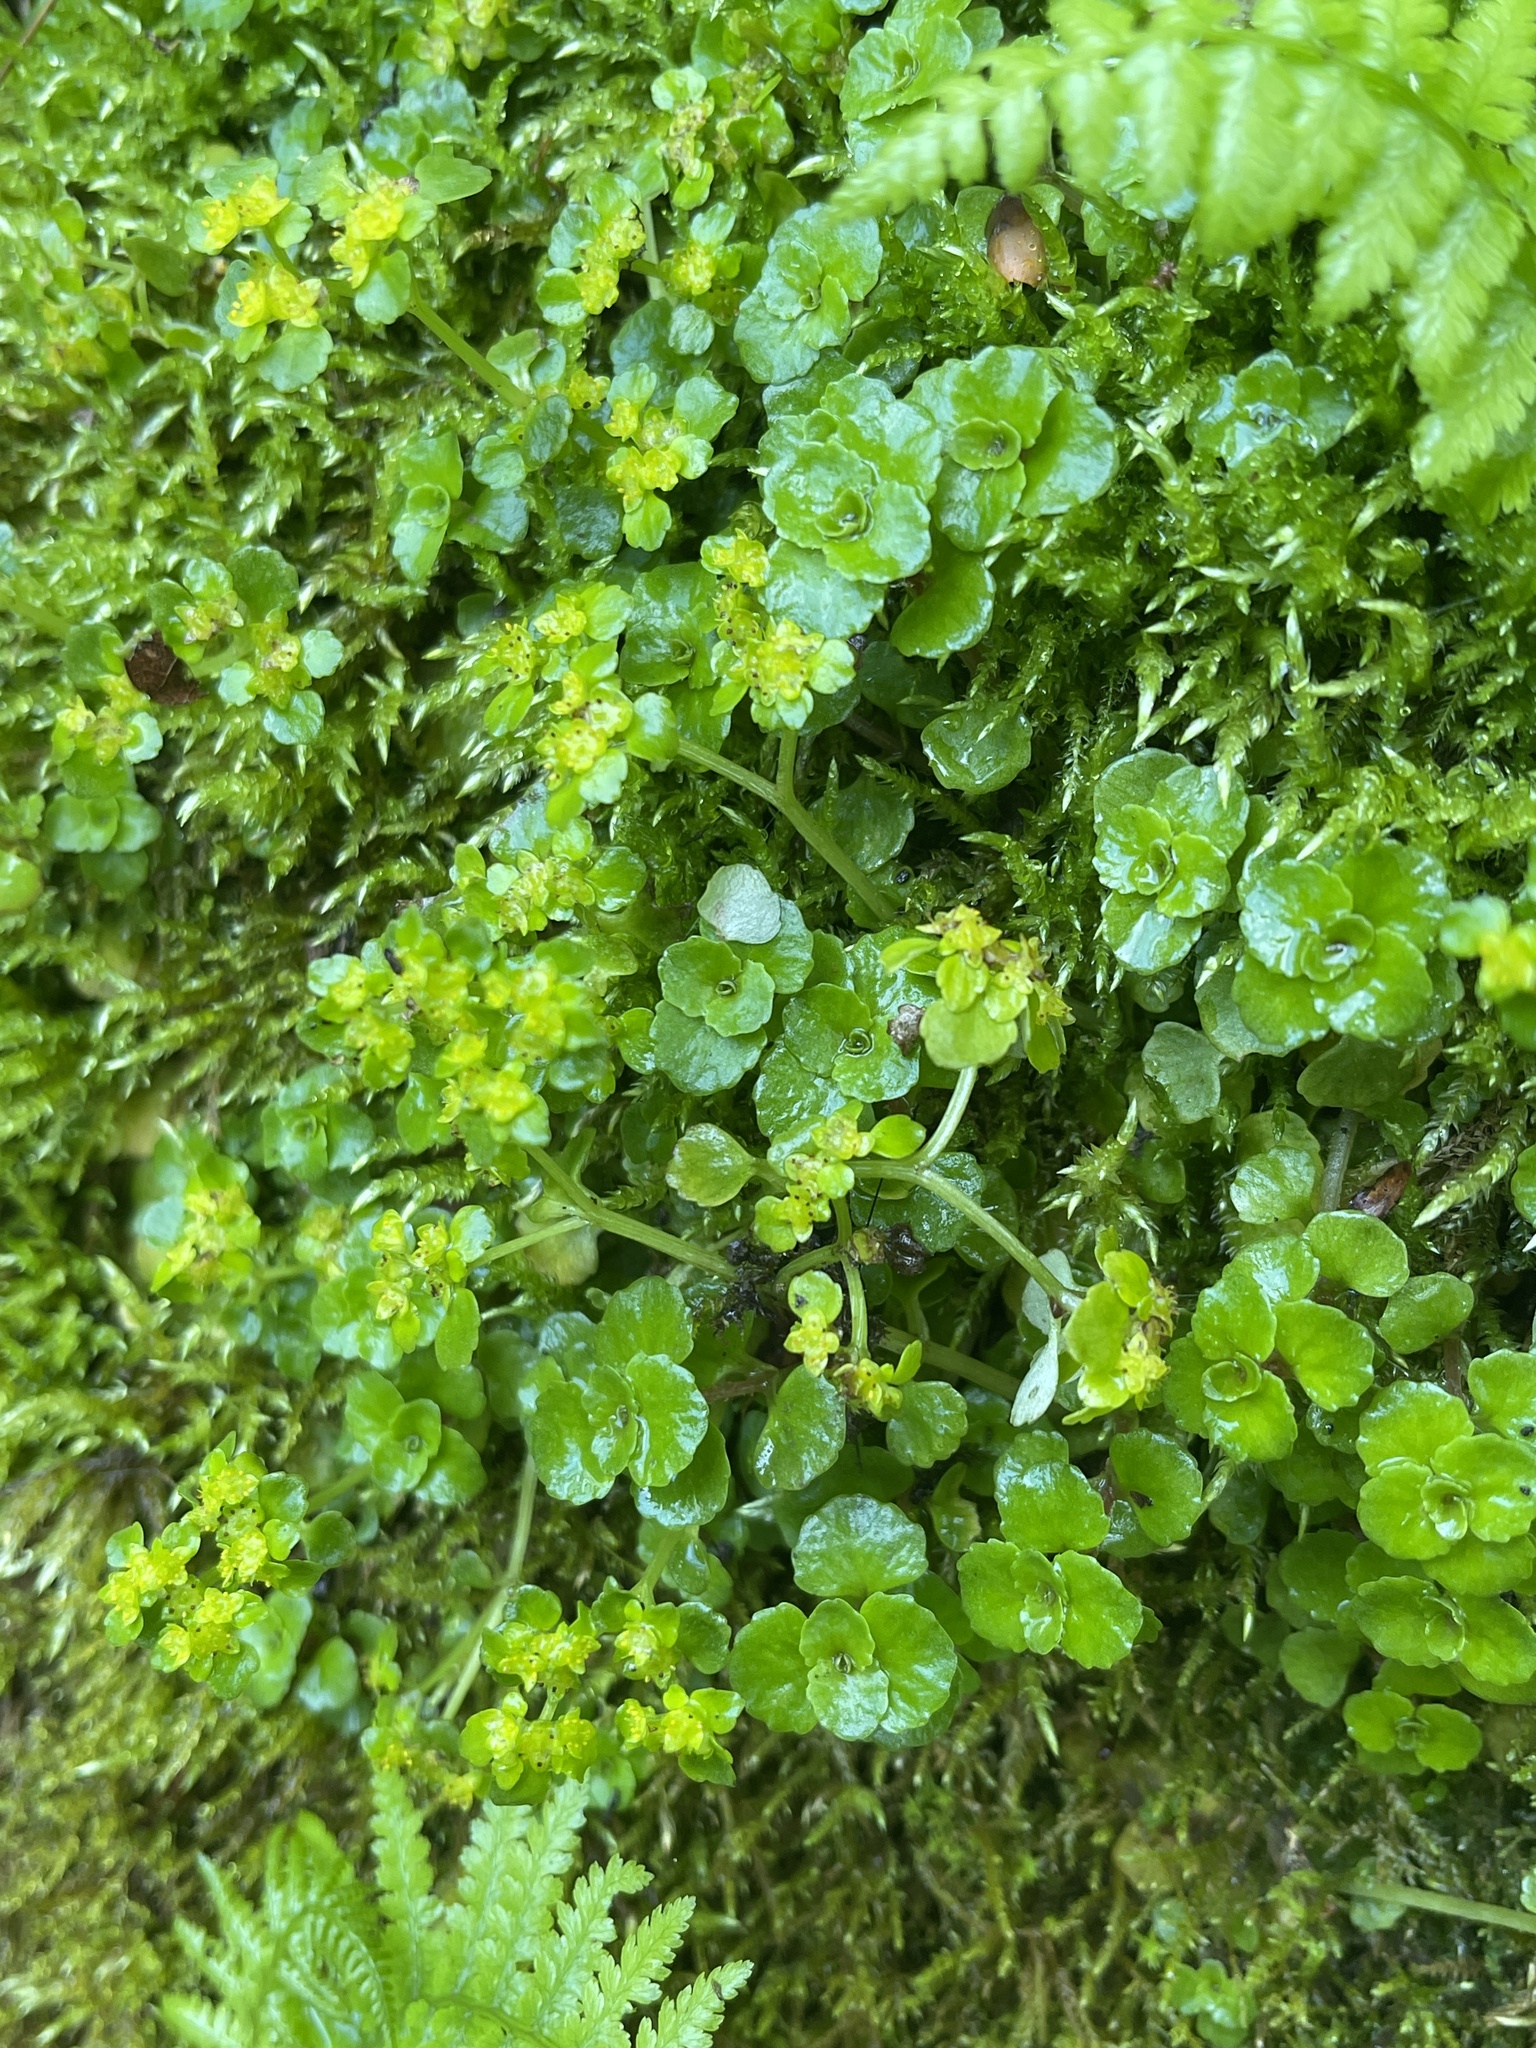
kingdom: Plantae
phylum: Tracheophyta
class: Magnoliopsida
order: Saxifragales
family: Saxifragaceae
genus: Chrysosplenium
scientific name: Chrysosplenium oppositifolium
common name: Opposite-leaved golden-saxifrage
